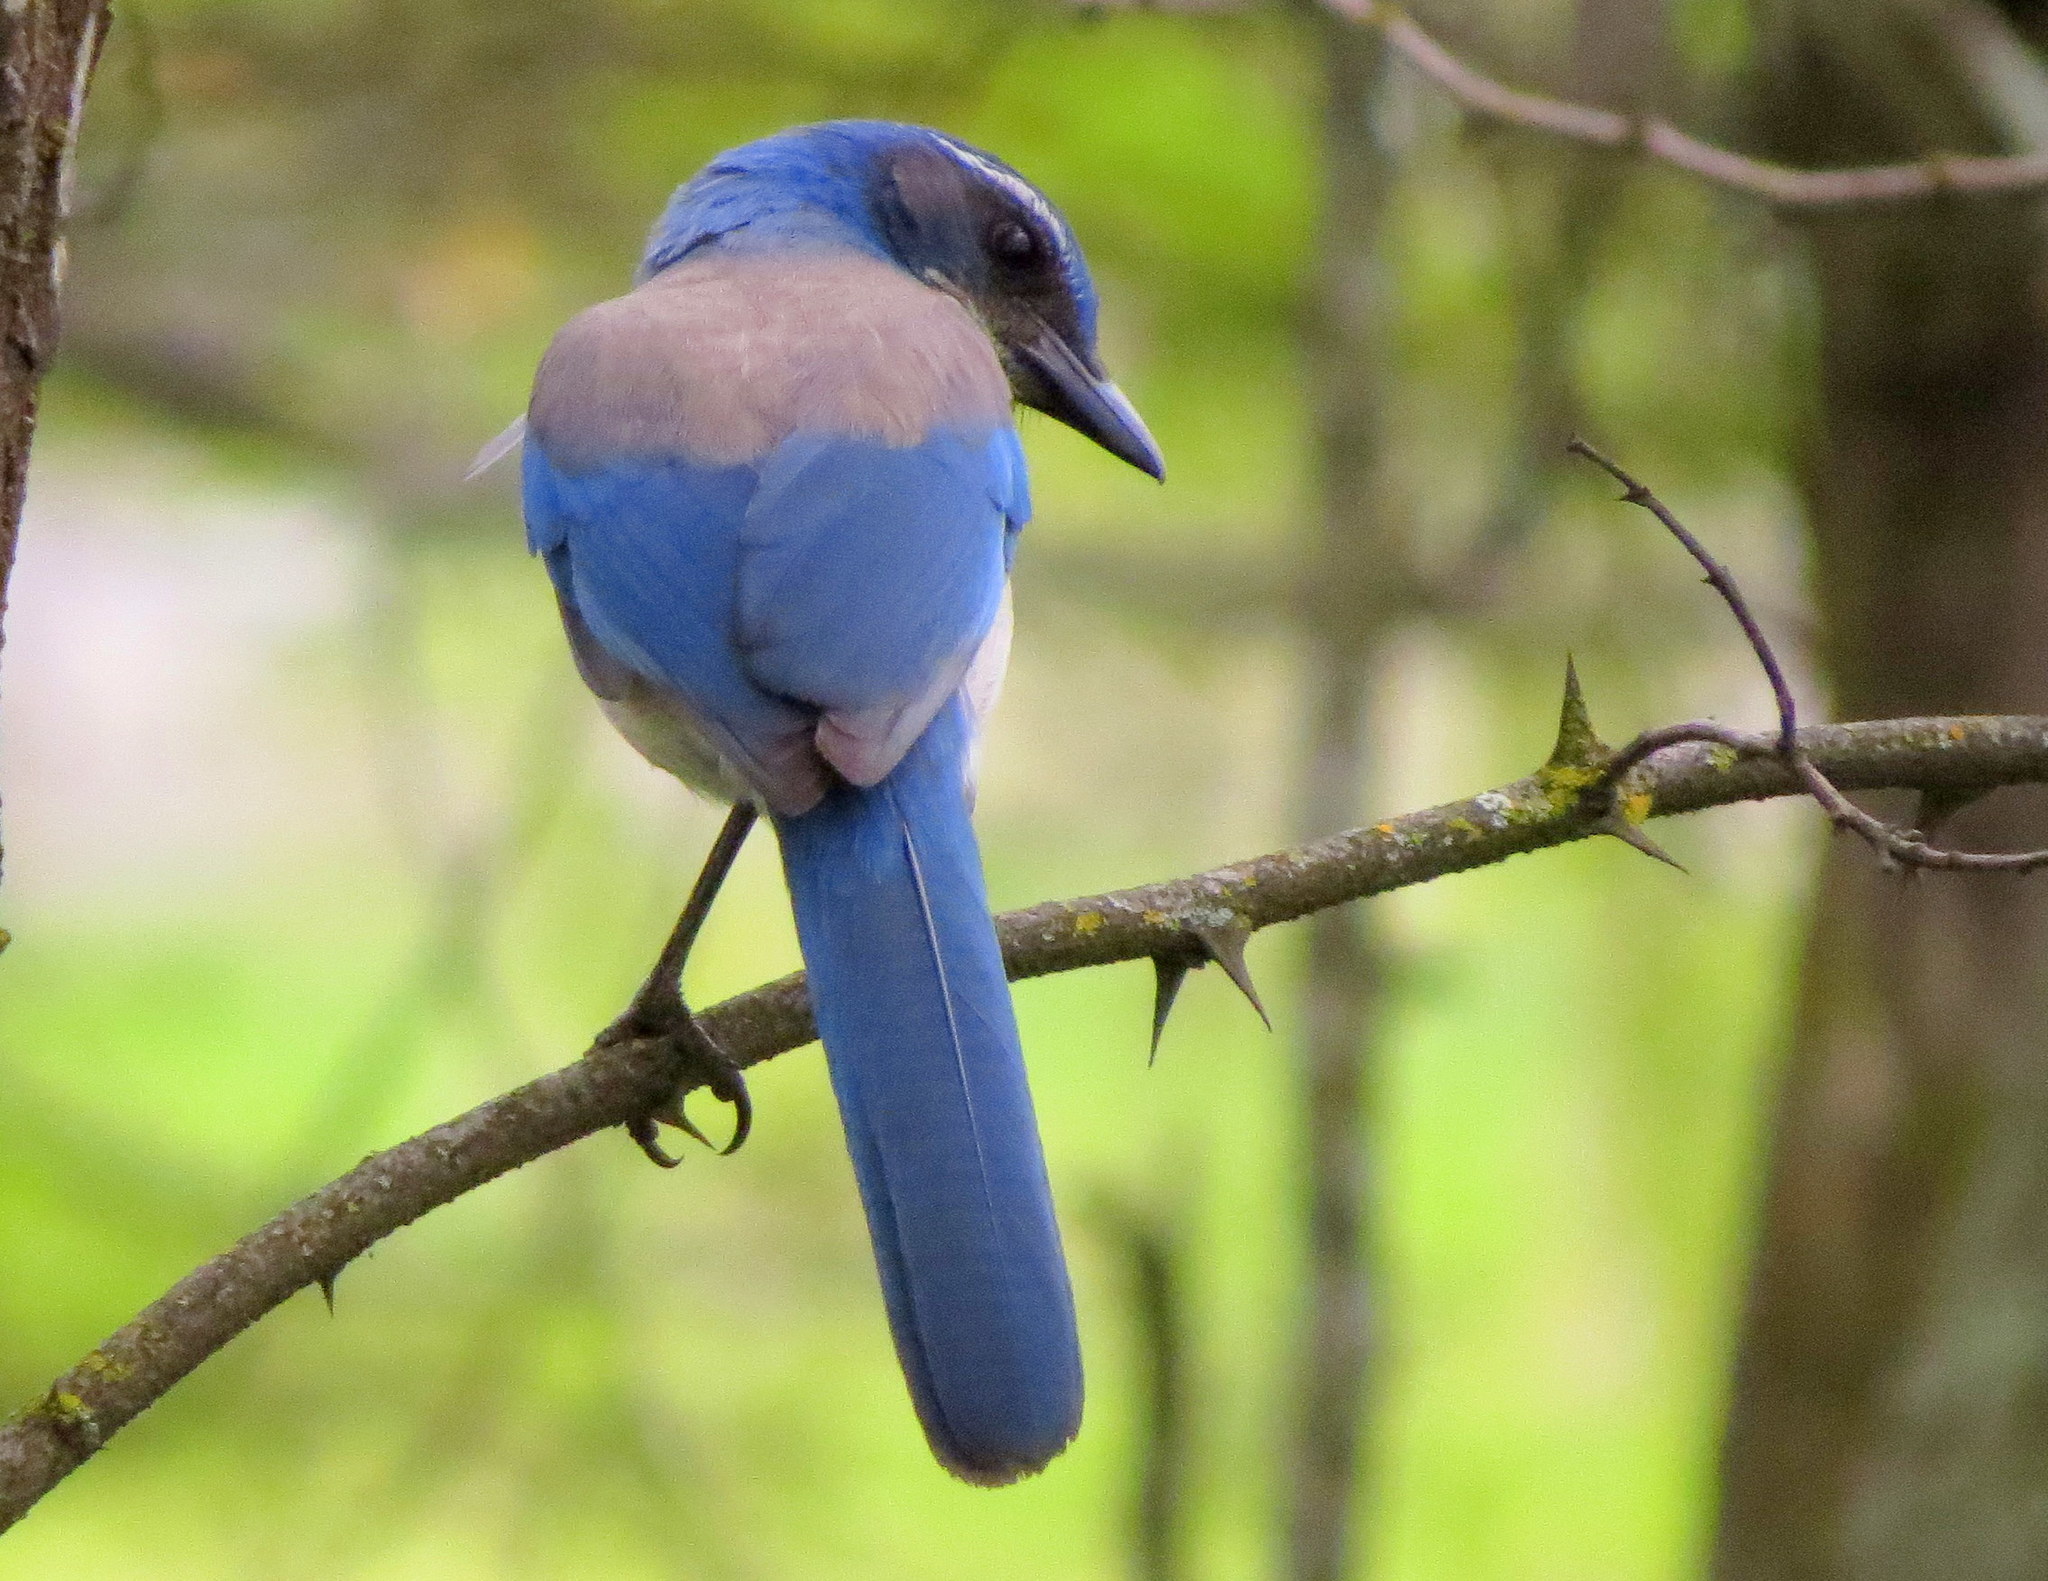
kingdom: Animalia
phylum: Chordata
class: Aves
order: Passeriformes
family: Corvidae
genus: Aphelocoma
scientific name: Aphelocoma californica
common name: California scrub-jay
